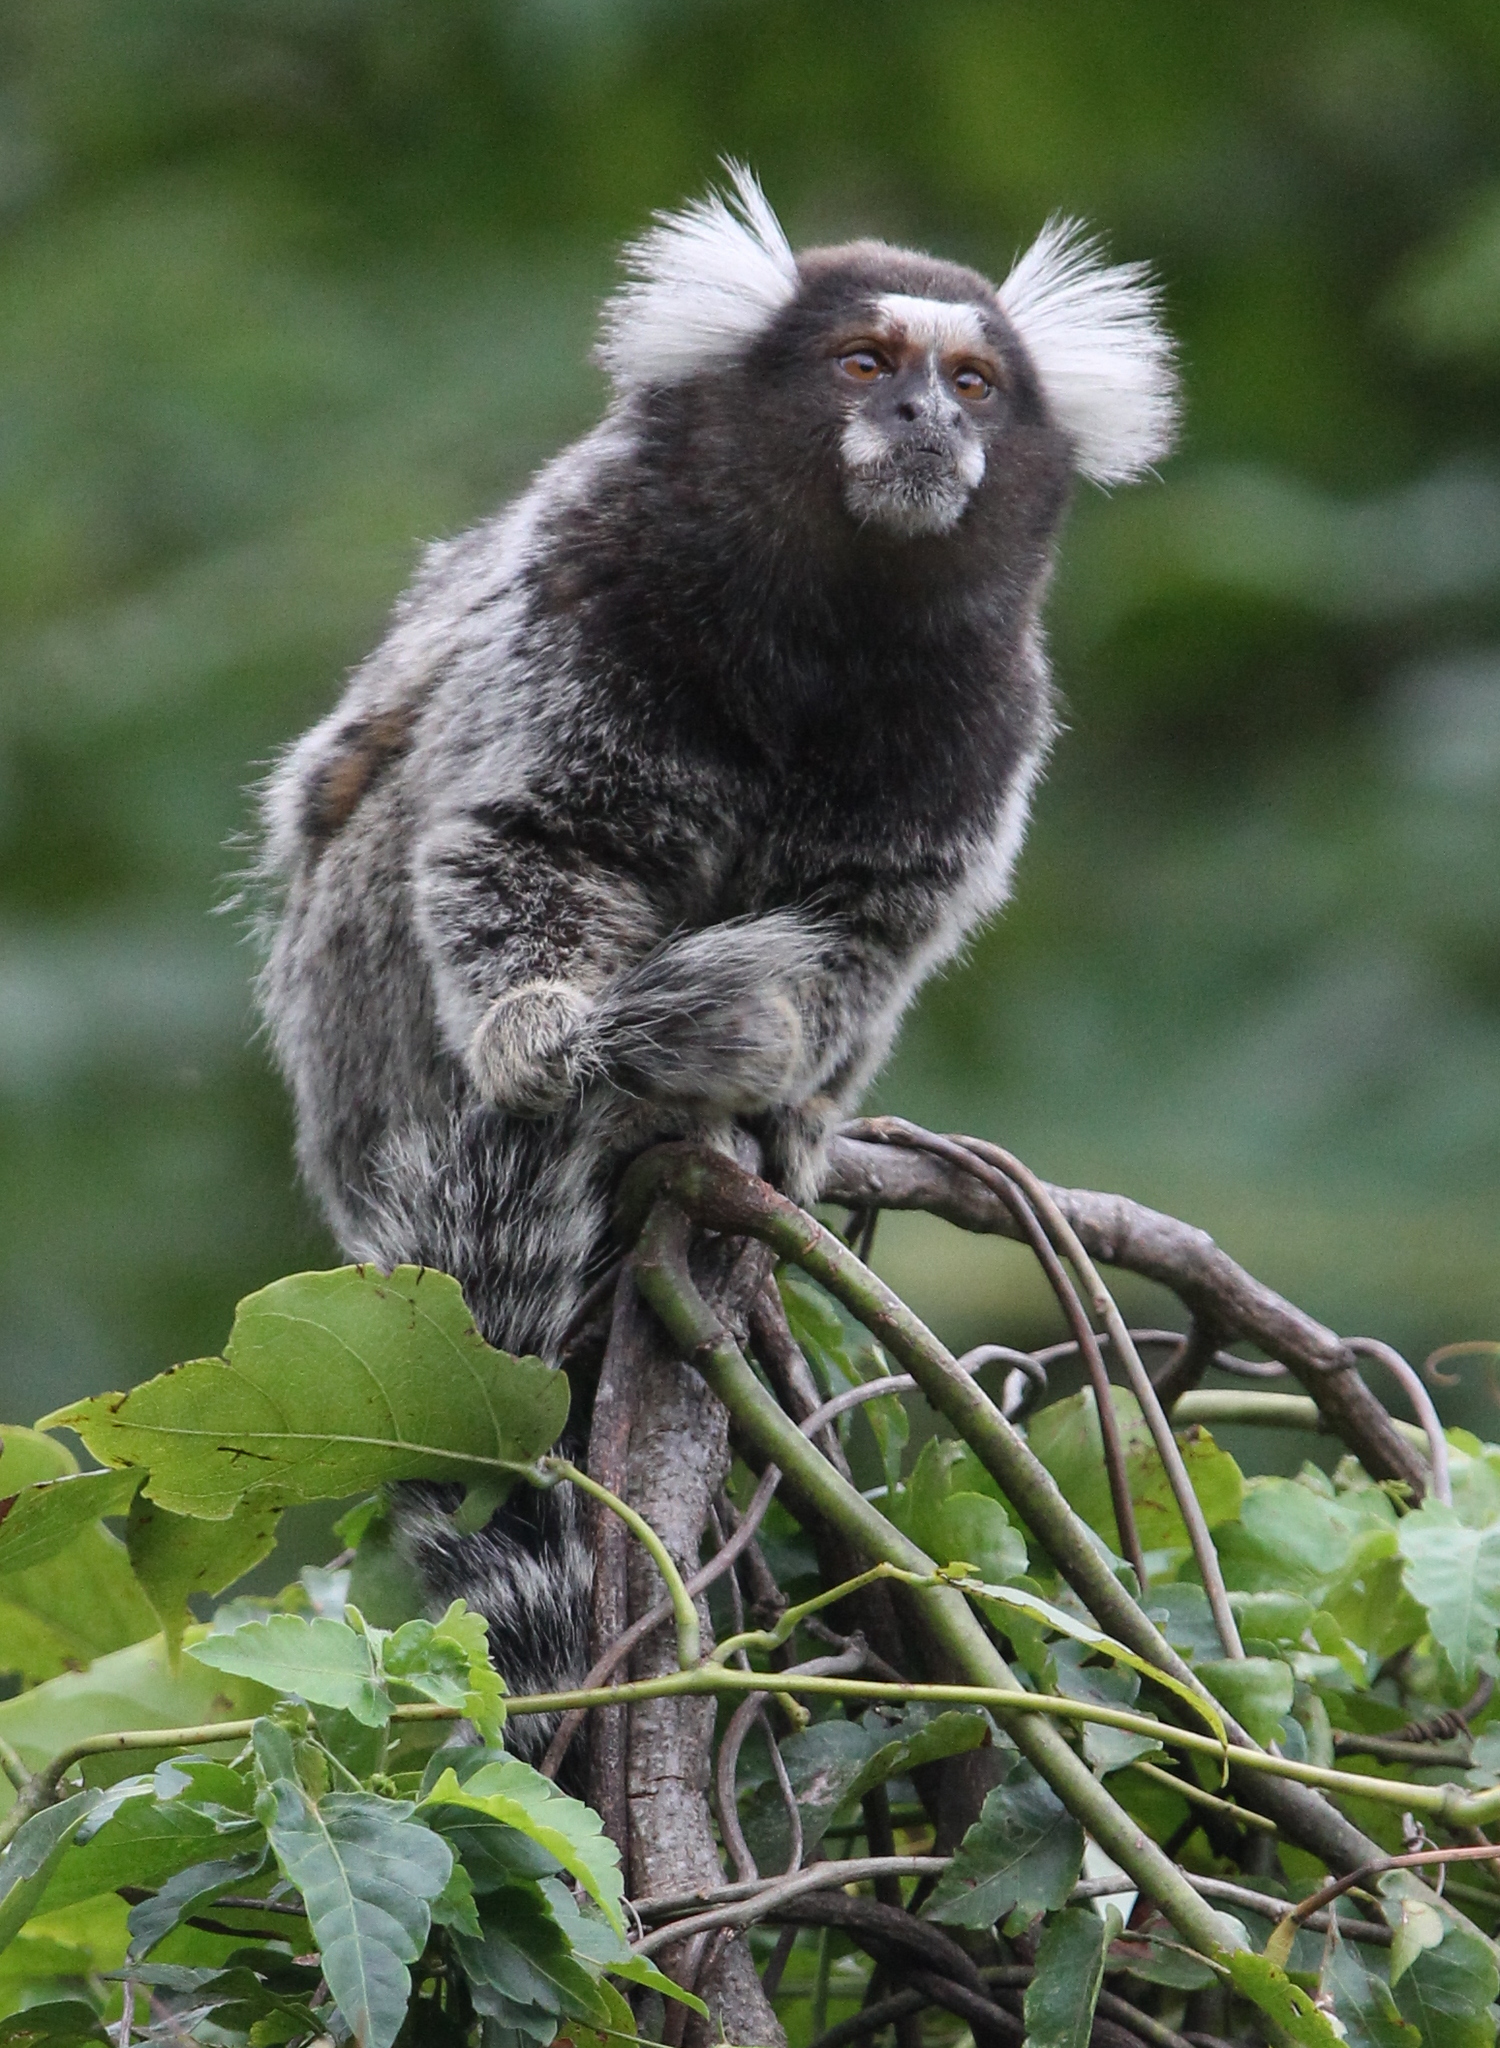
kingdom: Animalia
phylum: Chordata
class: Mammalia
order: Primates
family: Callitrichidae
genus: Callithrix
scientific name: Callithrix jacchus
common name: Common marmoset
